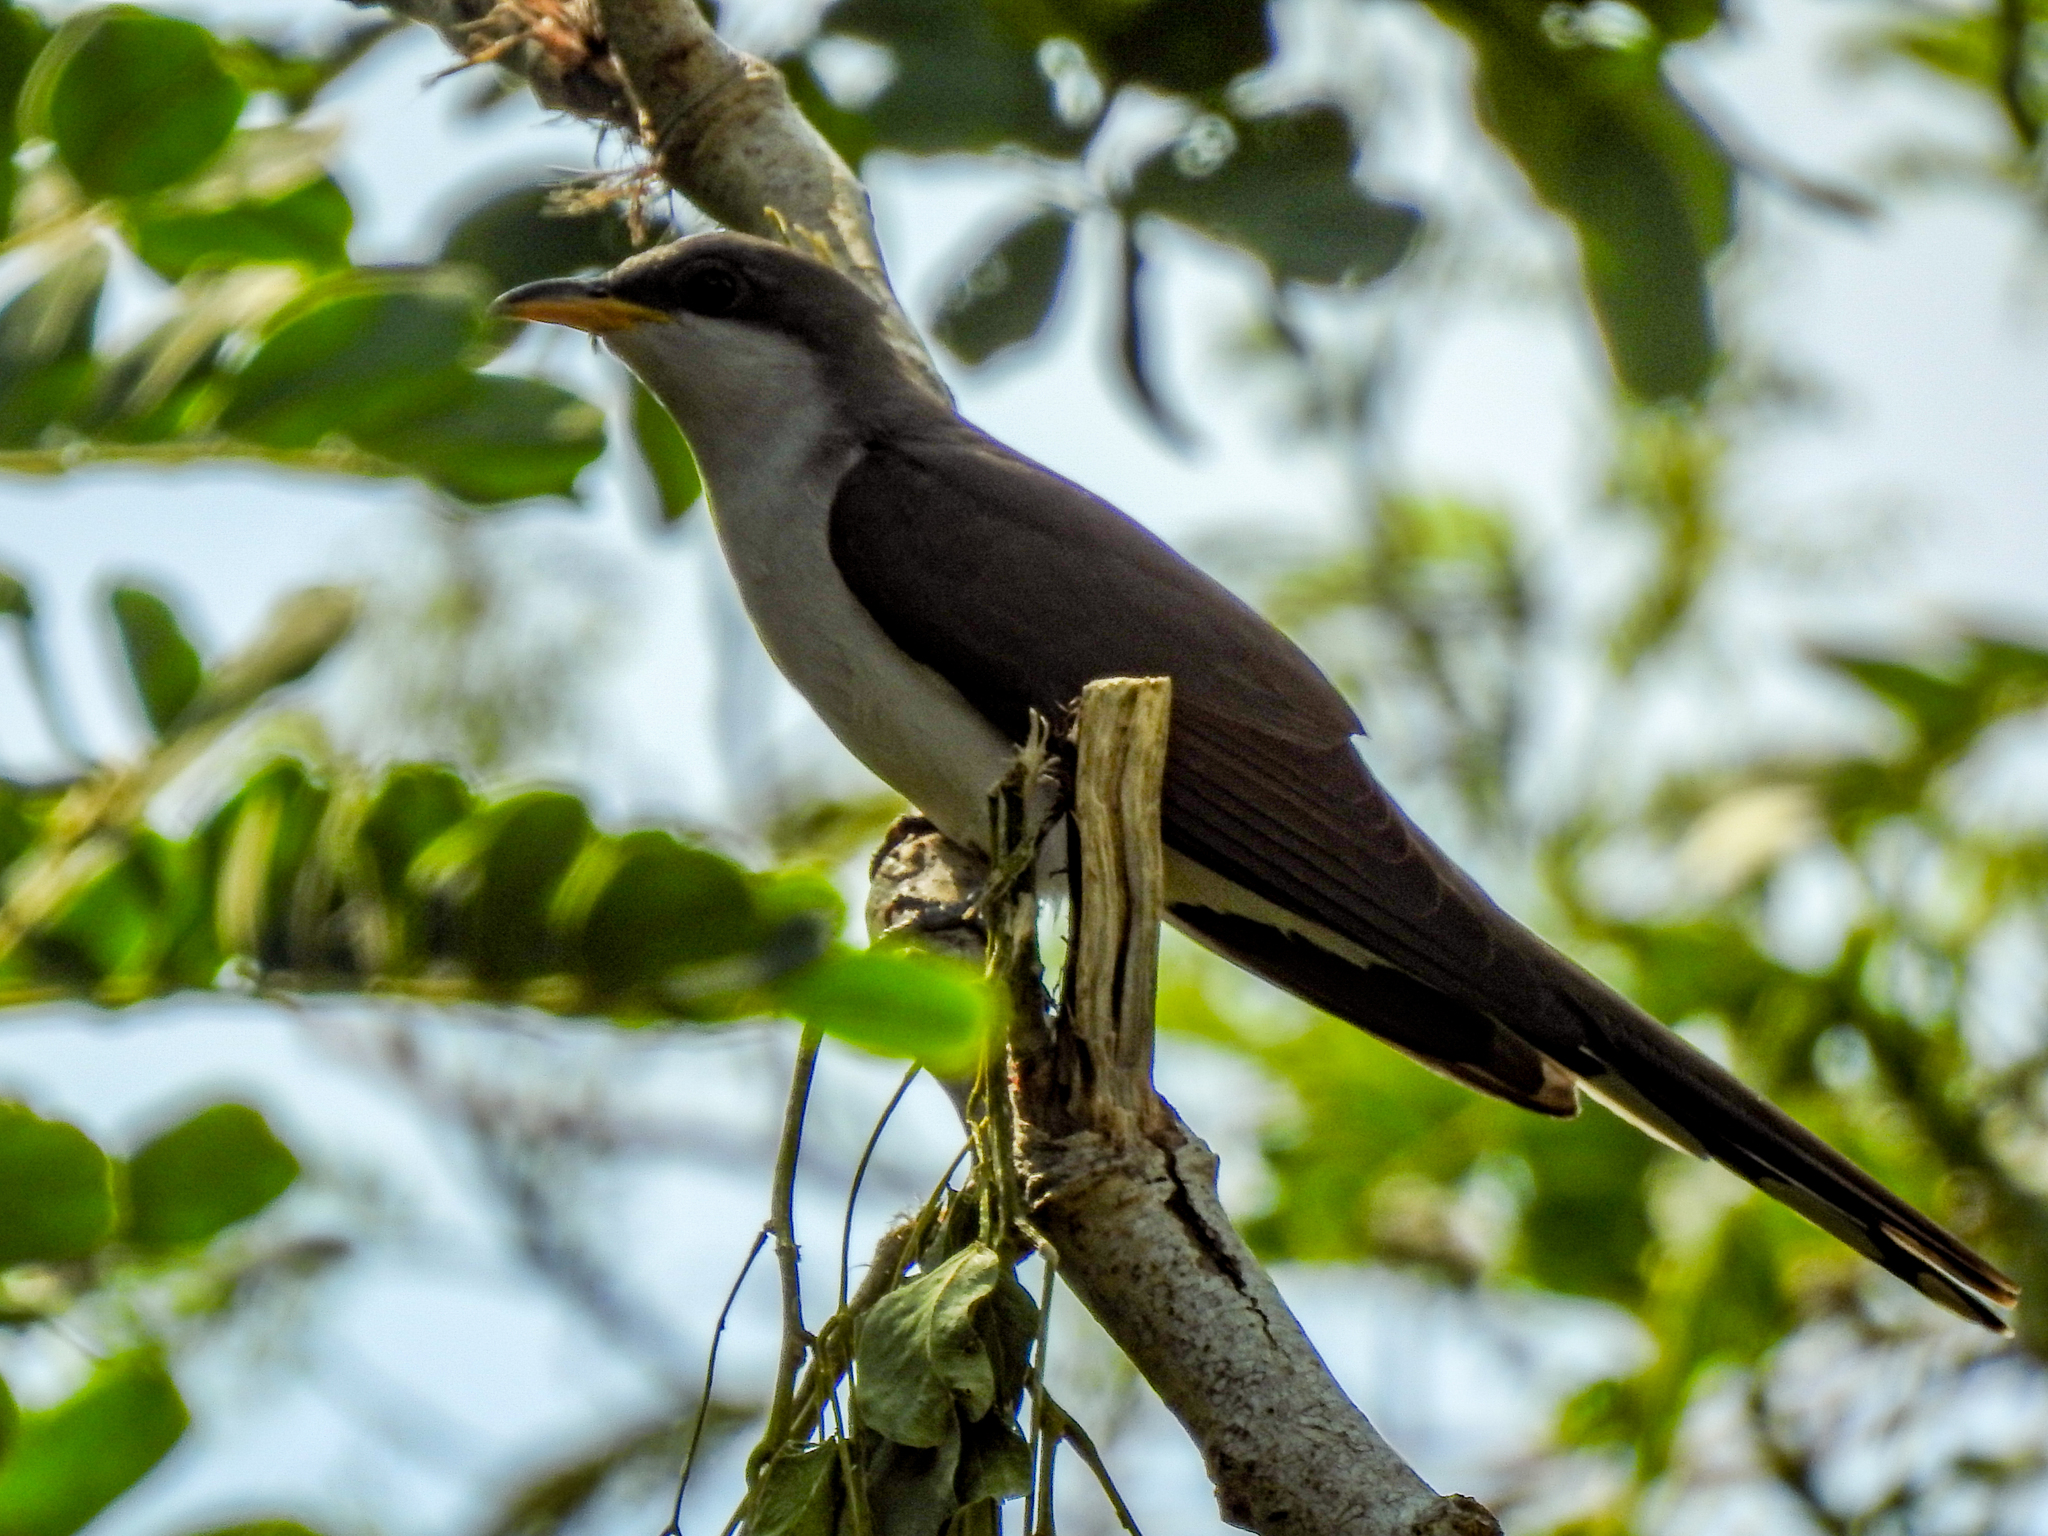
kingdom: Animalia
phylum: Chordata
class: Aves
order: Cuculiformes
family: Cuculidae
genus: Coccyzus
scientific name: Coccyzus americanus
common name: Yellow-billed cuckoo
